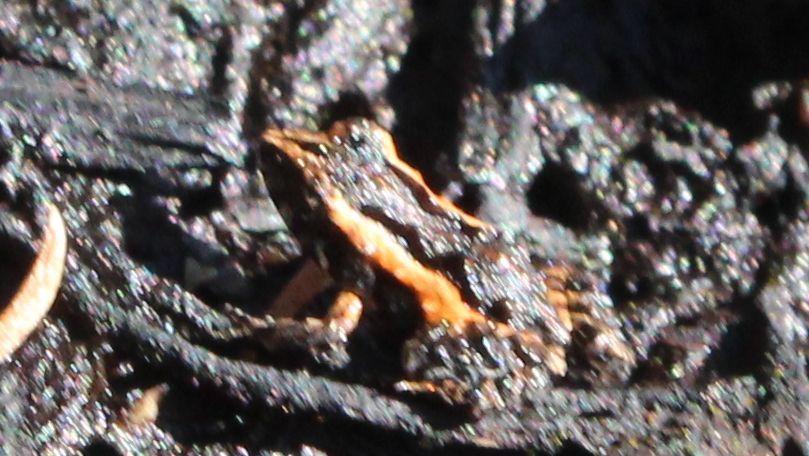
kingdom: Animalia
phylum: Chordata
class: Amphibia
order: Anura
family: Myobatrachidae
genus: Geocrinia
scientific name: Geocrinia leai
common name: Lea’s frog
